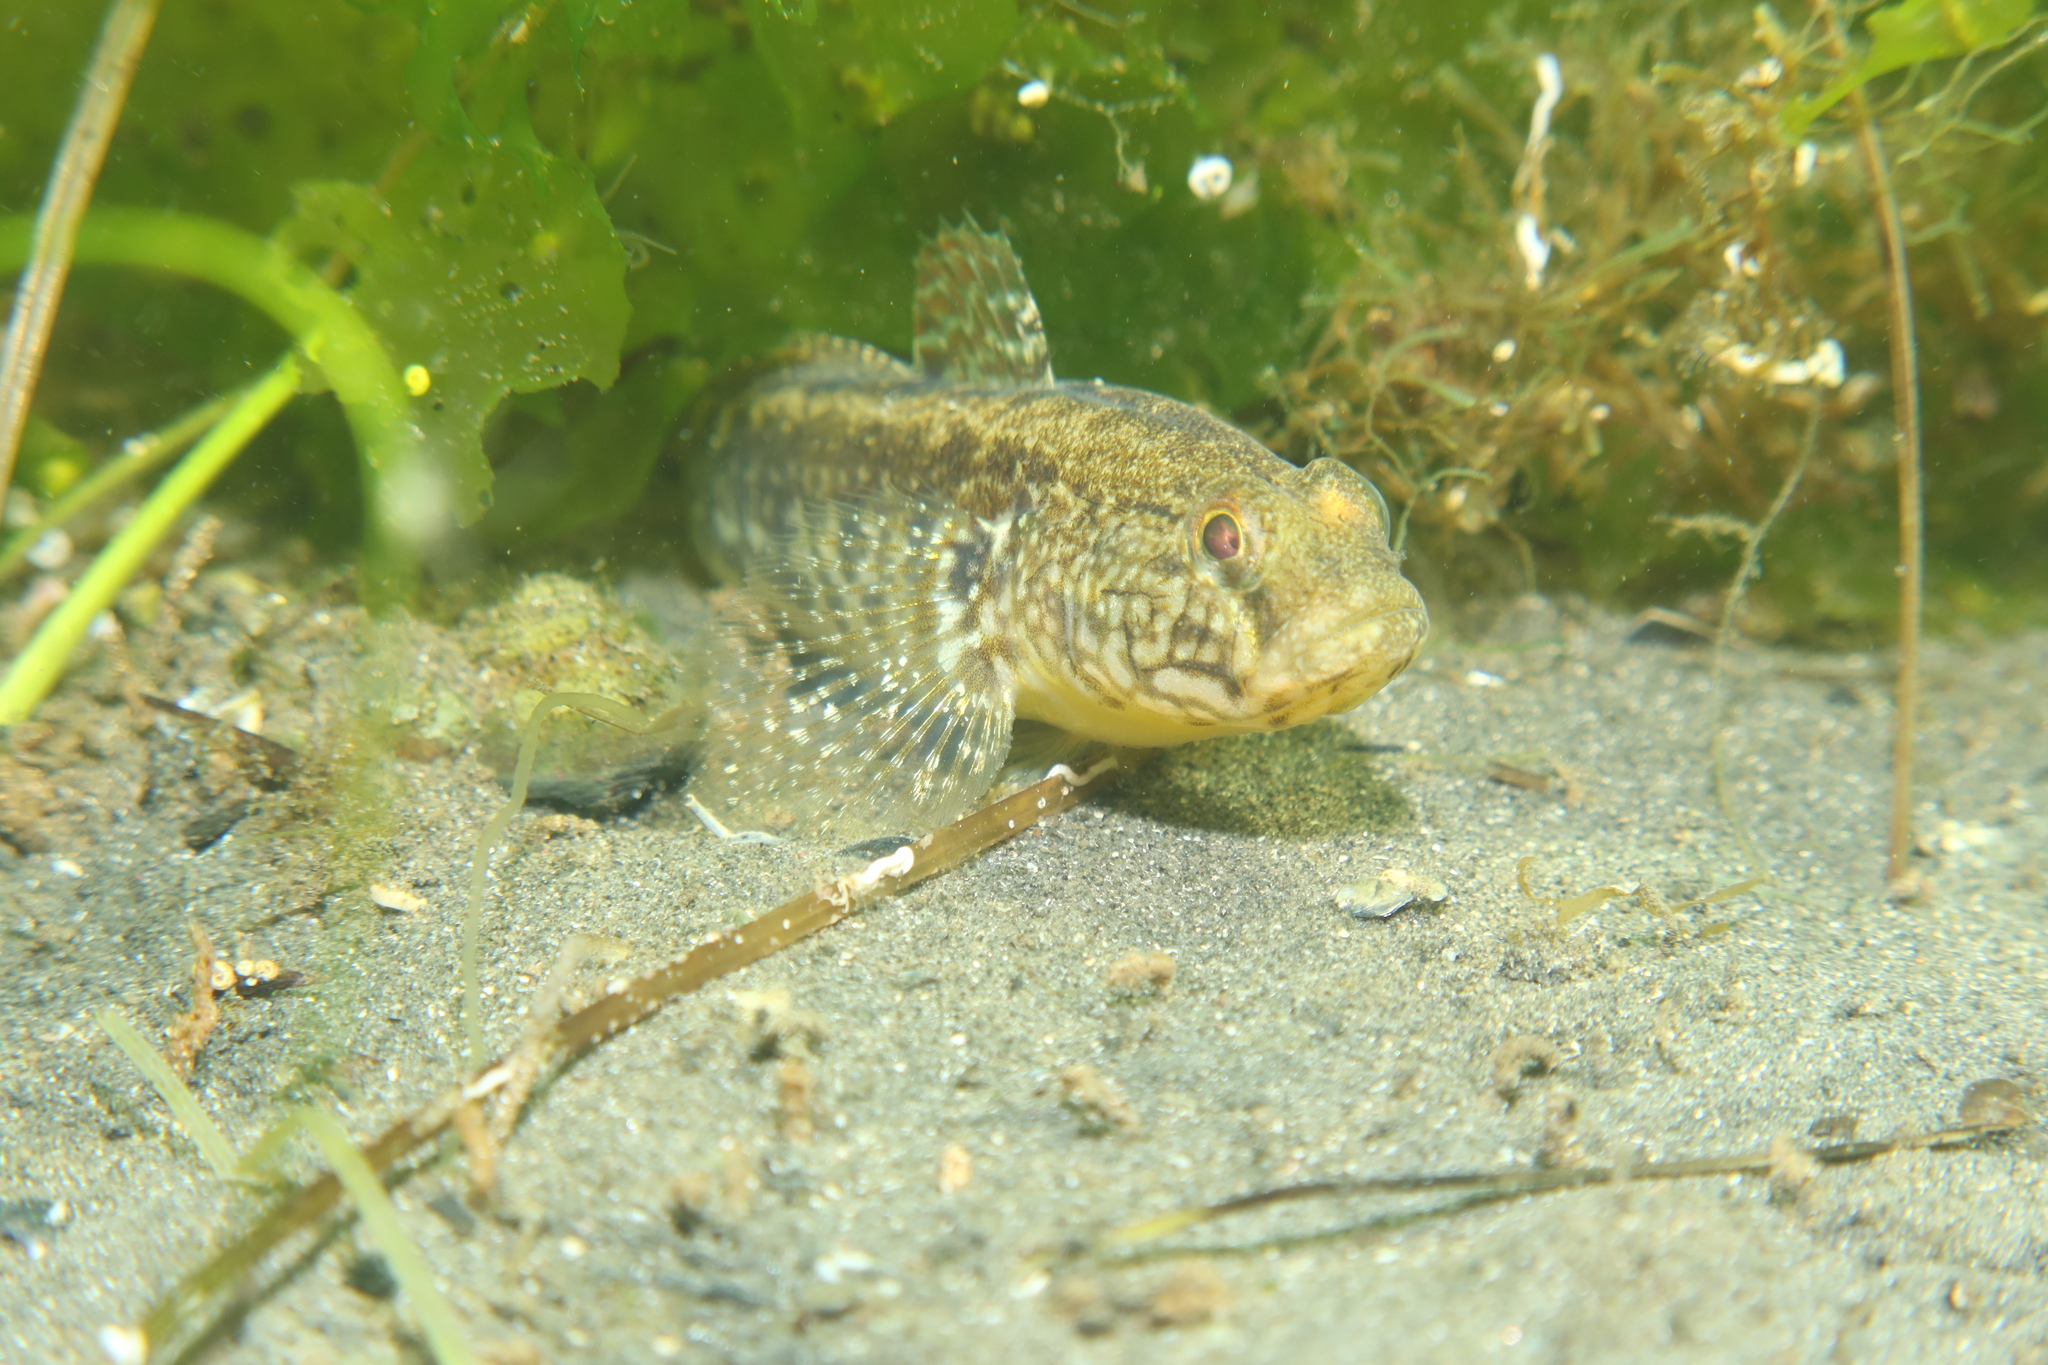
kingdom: Animalia
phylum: Chordata
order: Perciformes
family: Gobiidae
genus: Zosterisessor
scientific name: Zosterisessor ophiocephalus
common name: Grass goby
